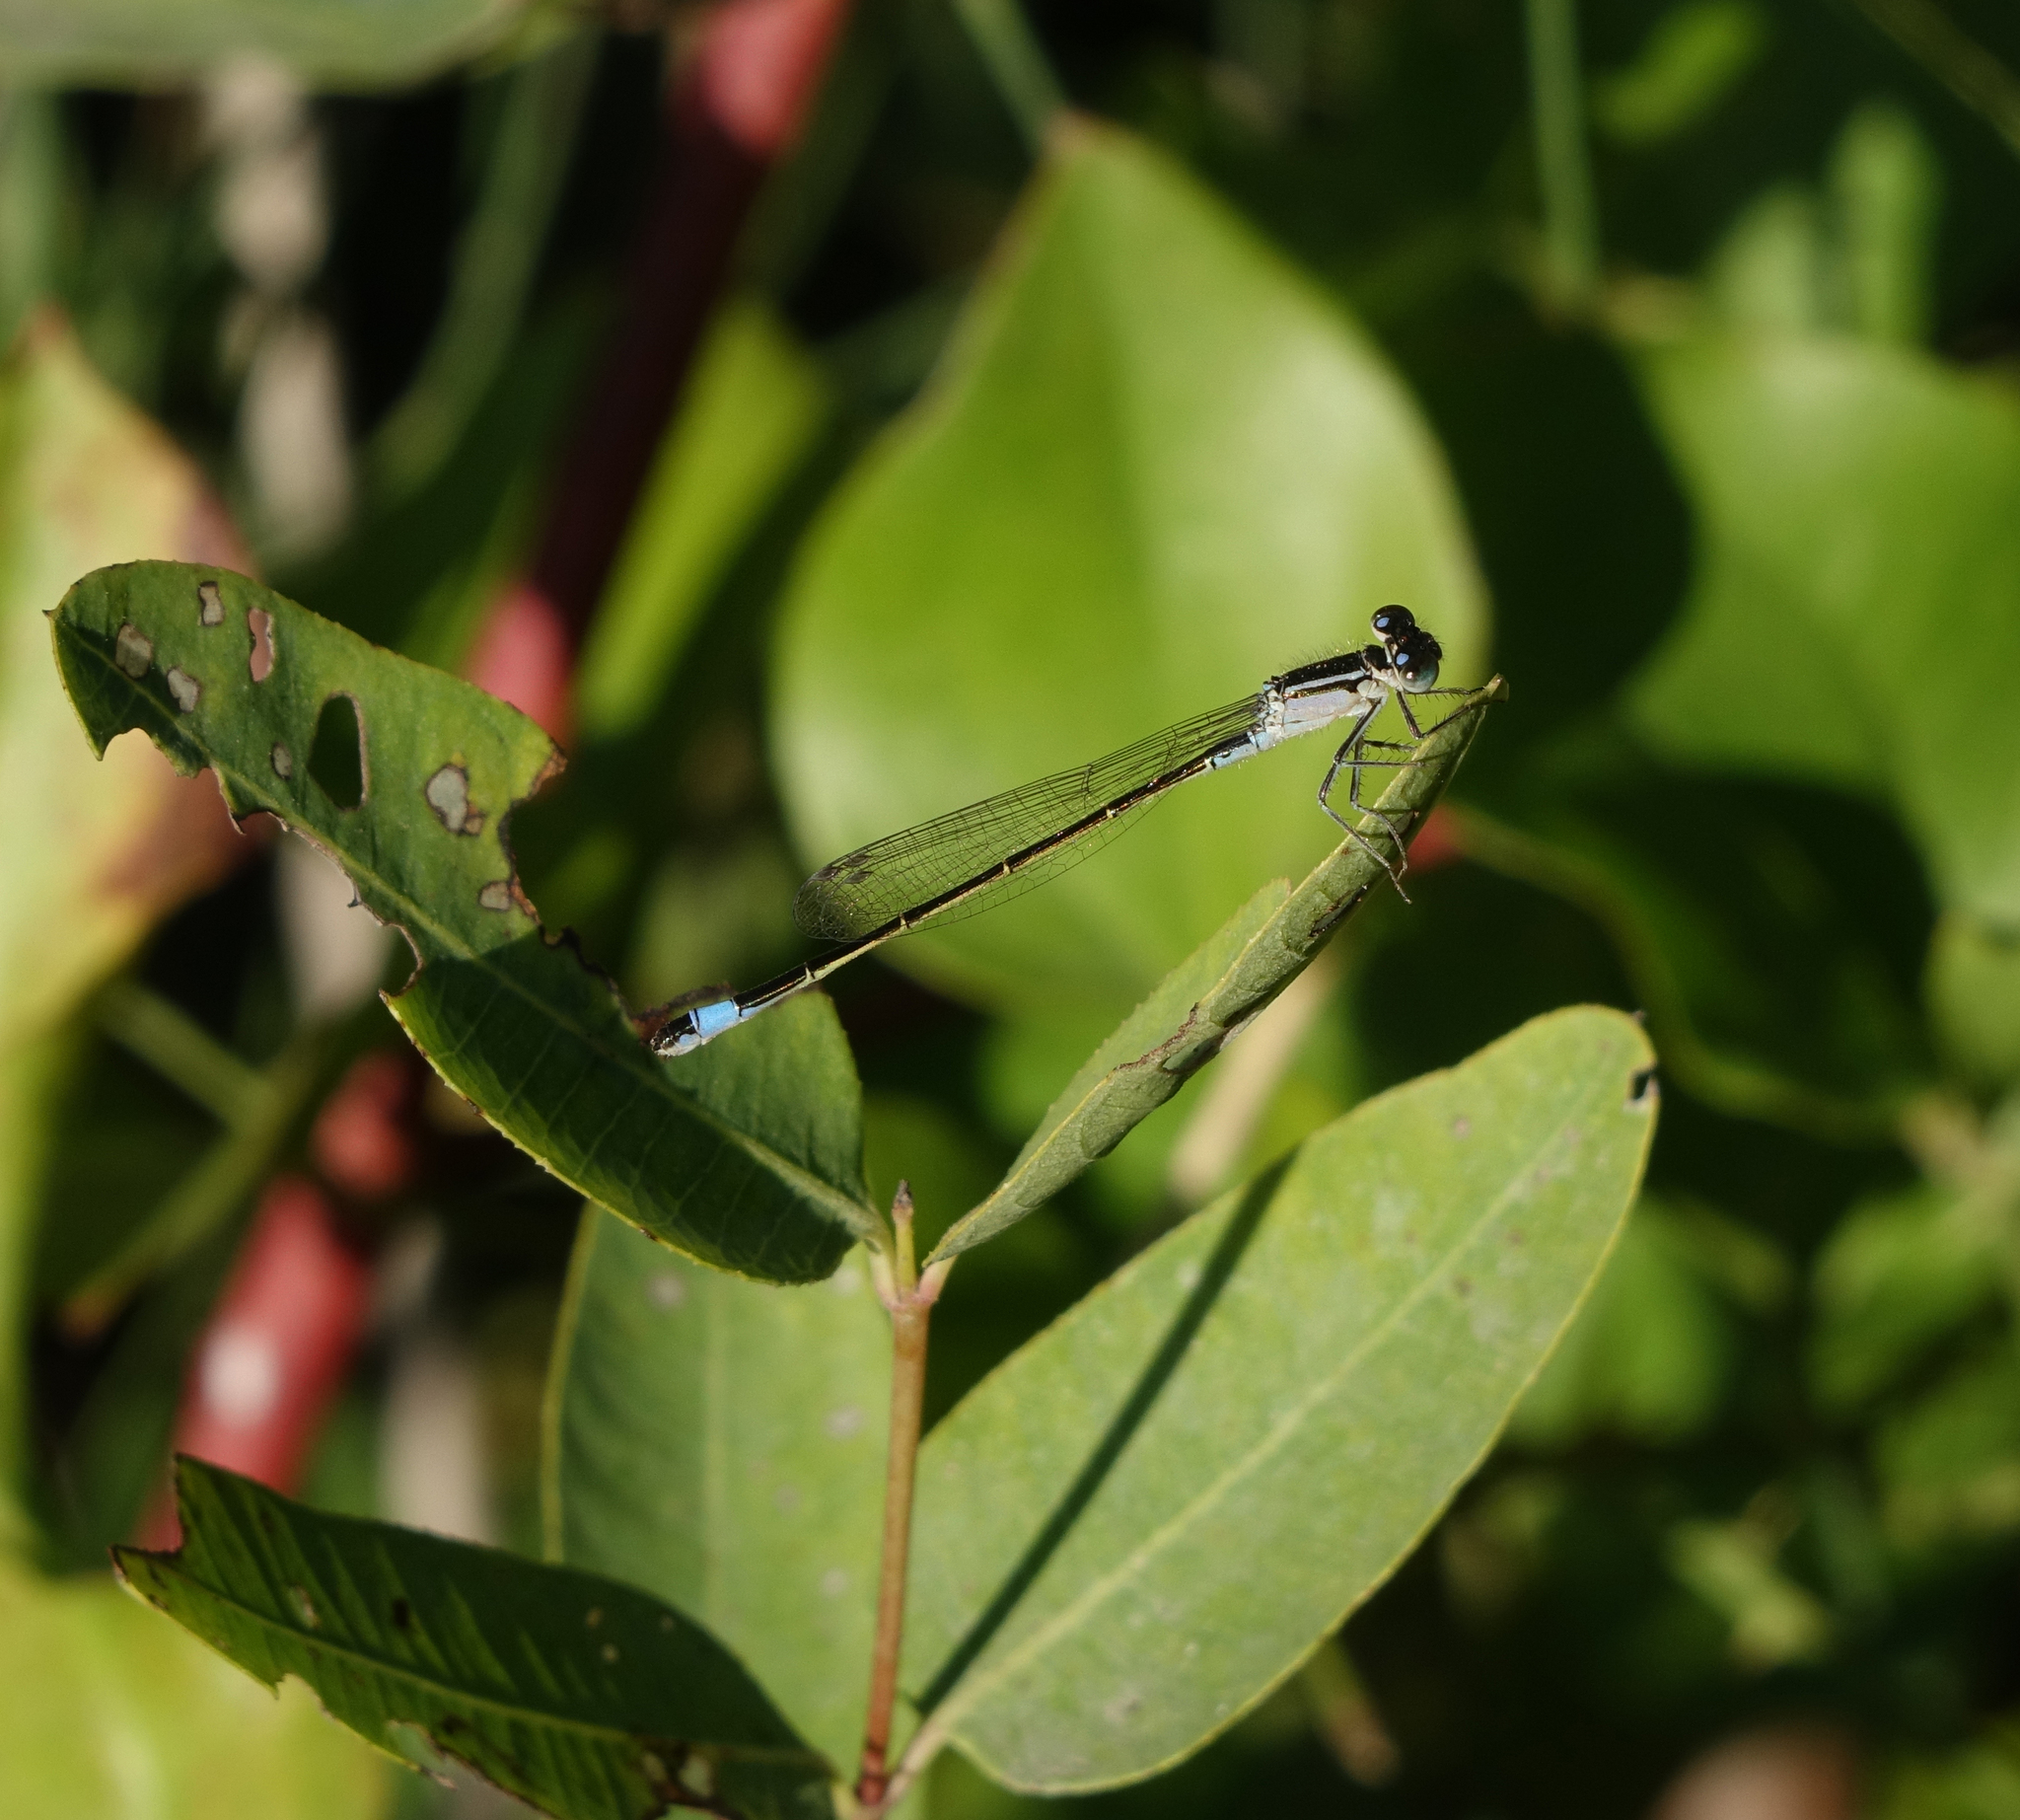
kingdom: Animalia
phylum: Arthropoda
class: Insecta
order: Odonata
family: Coenagrionidae
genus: Ischnura
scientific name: Ischnura elegans
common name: Blue-tailed damselfly
